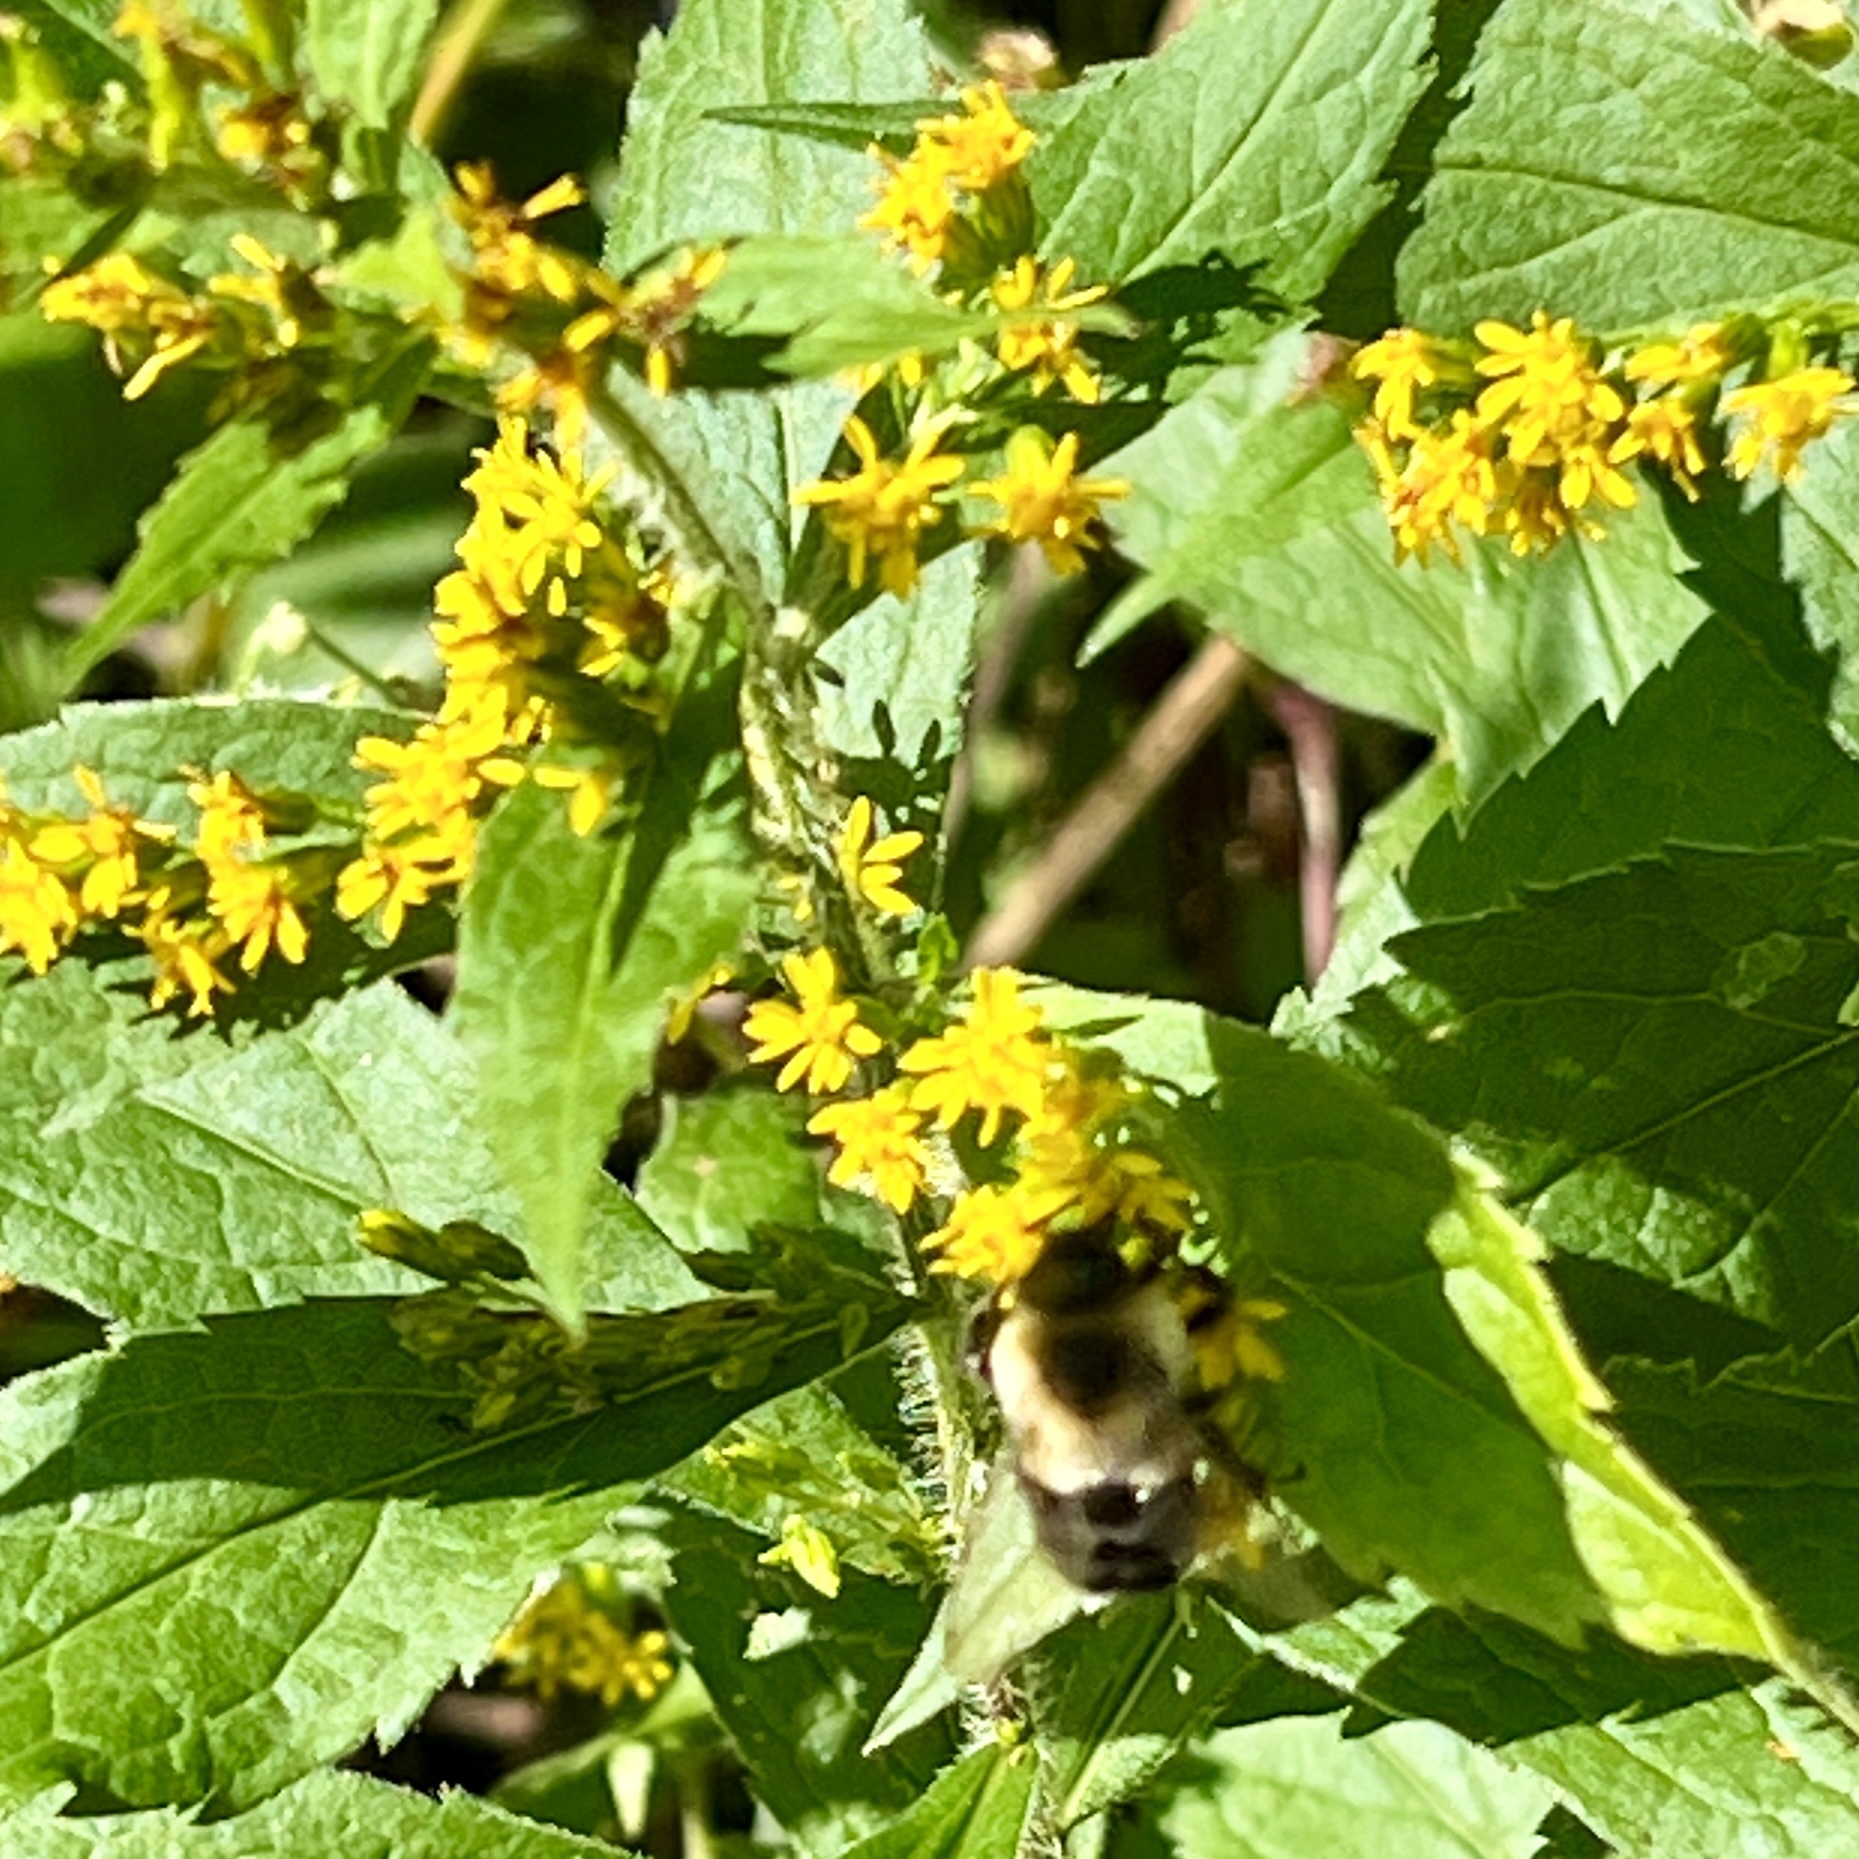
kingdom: Plantae
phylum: Tracheophyta
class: Magnoliopsida
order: Asterales
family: Asteraceae
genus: Solidago
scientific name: Solidago rugosa
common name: Rough-stemmed goldenrod
